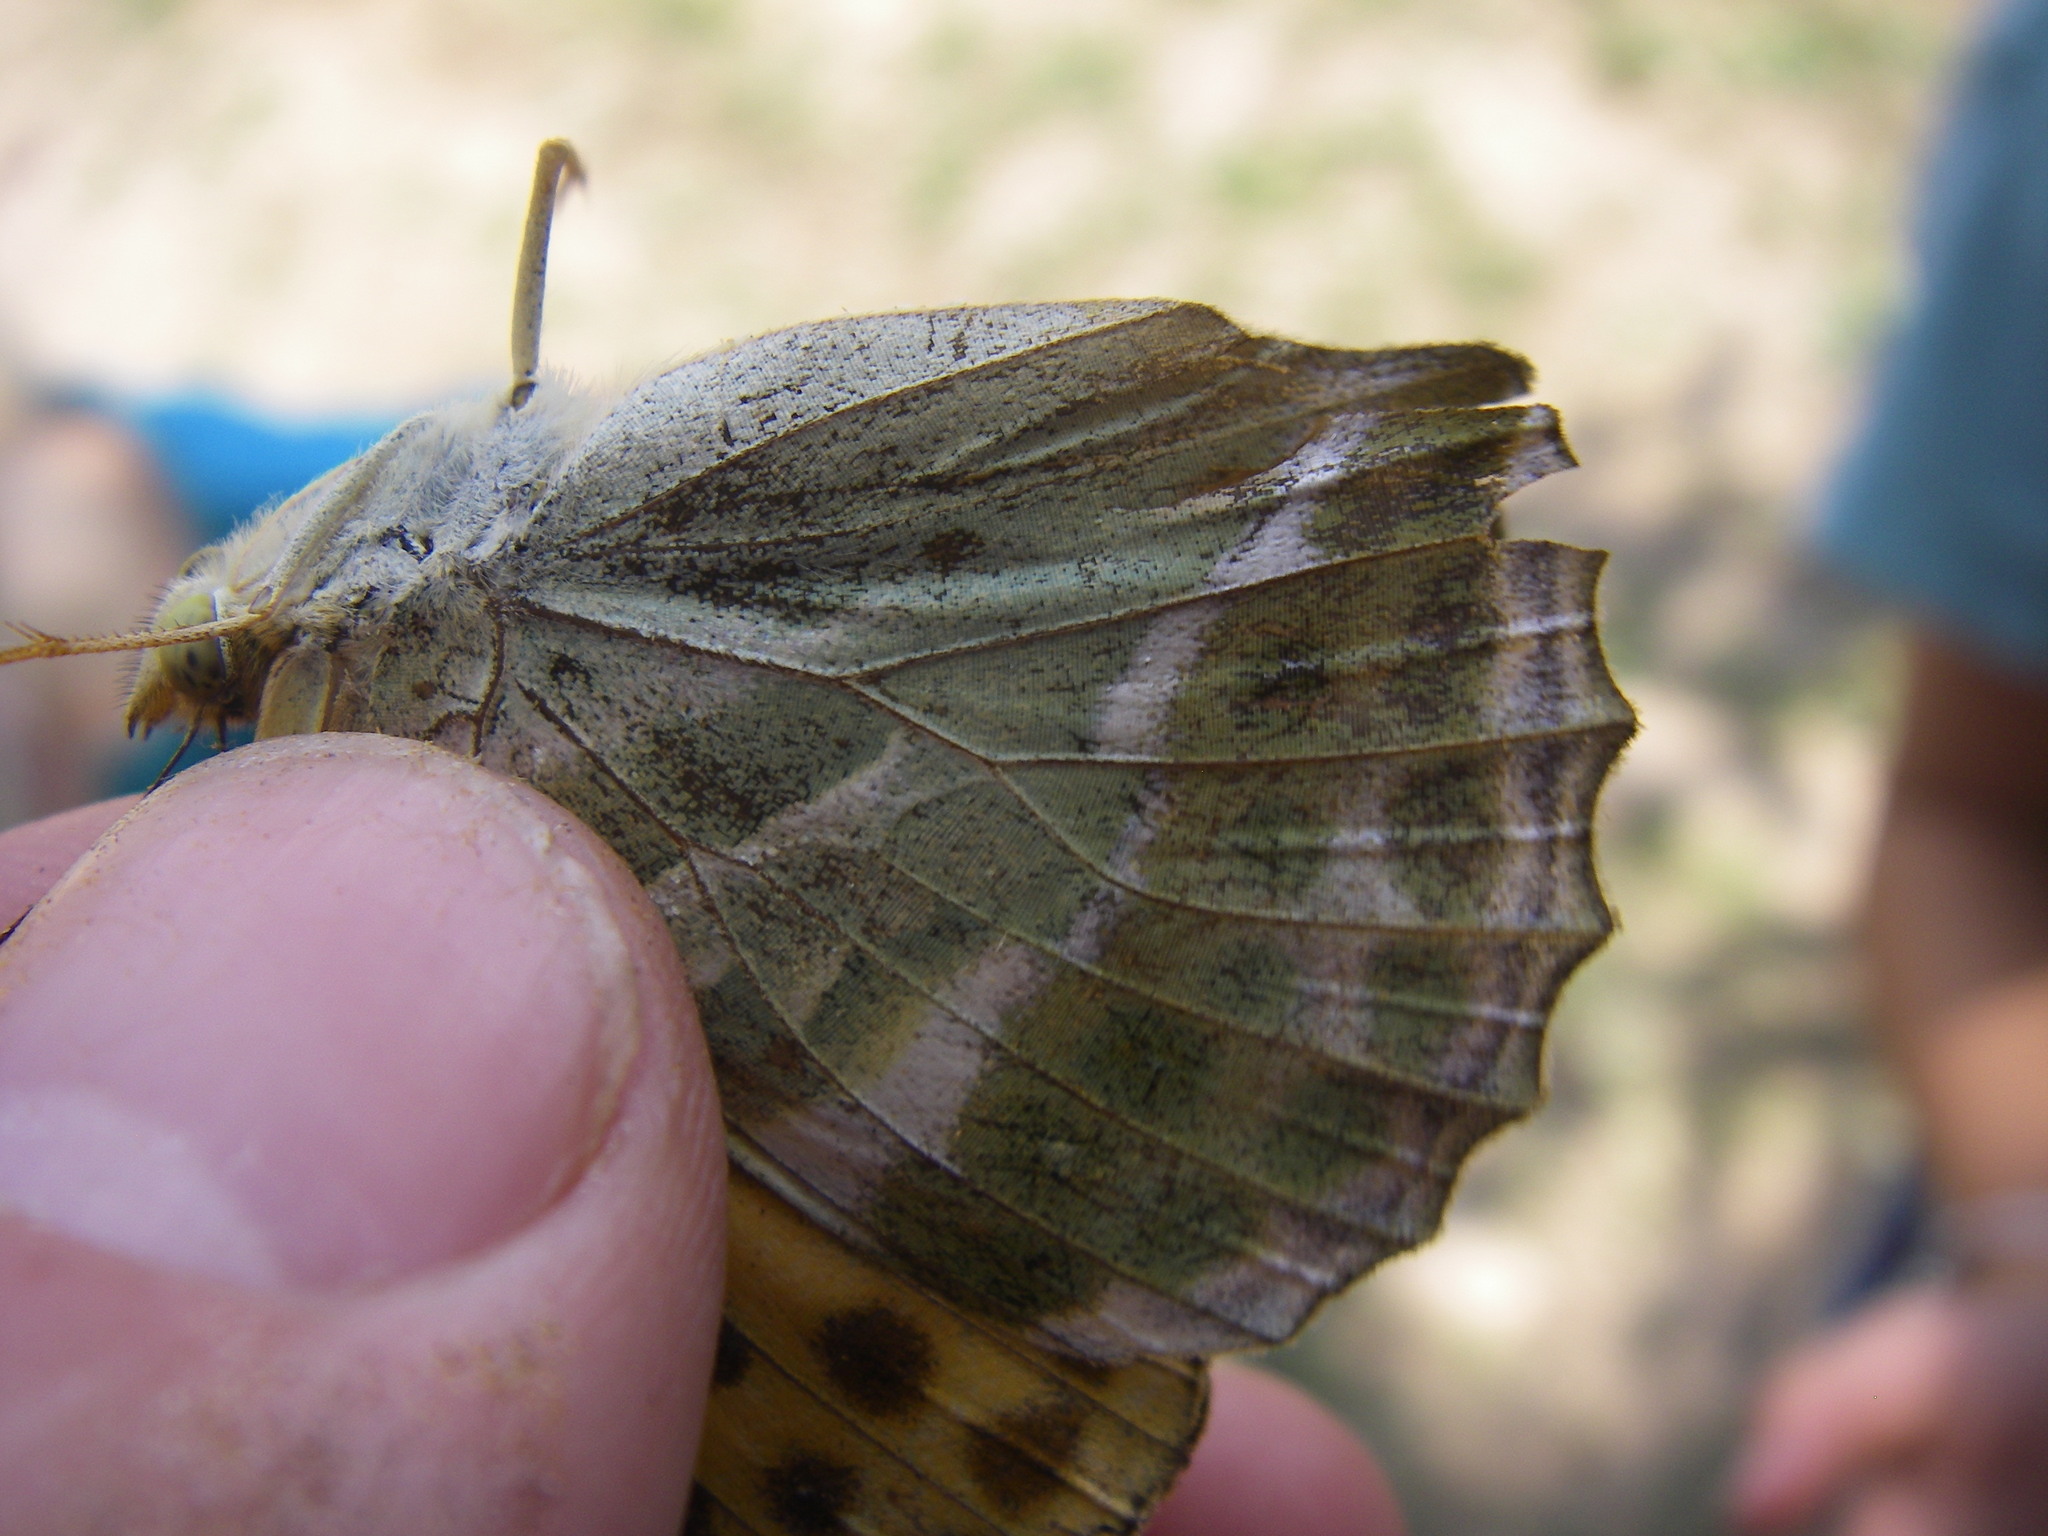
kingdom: Animalia
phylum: Arthropoda
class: Insecta
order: Lepidoptera
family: Nymphalidae
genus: Argynnis
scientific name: Argynnis paphia
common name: Silver-washed fritillary
